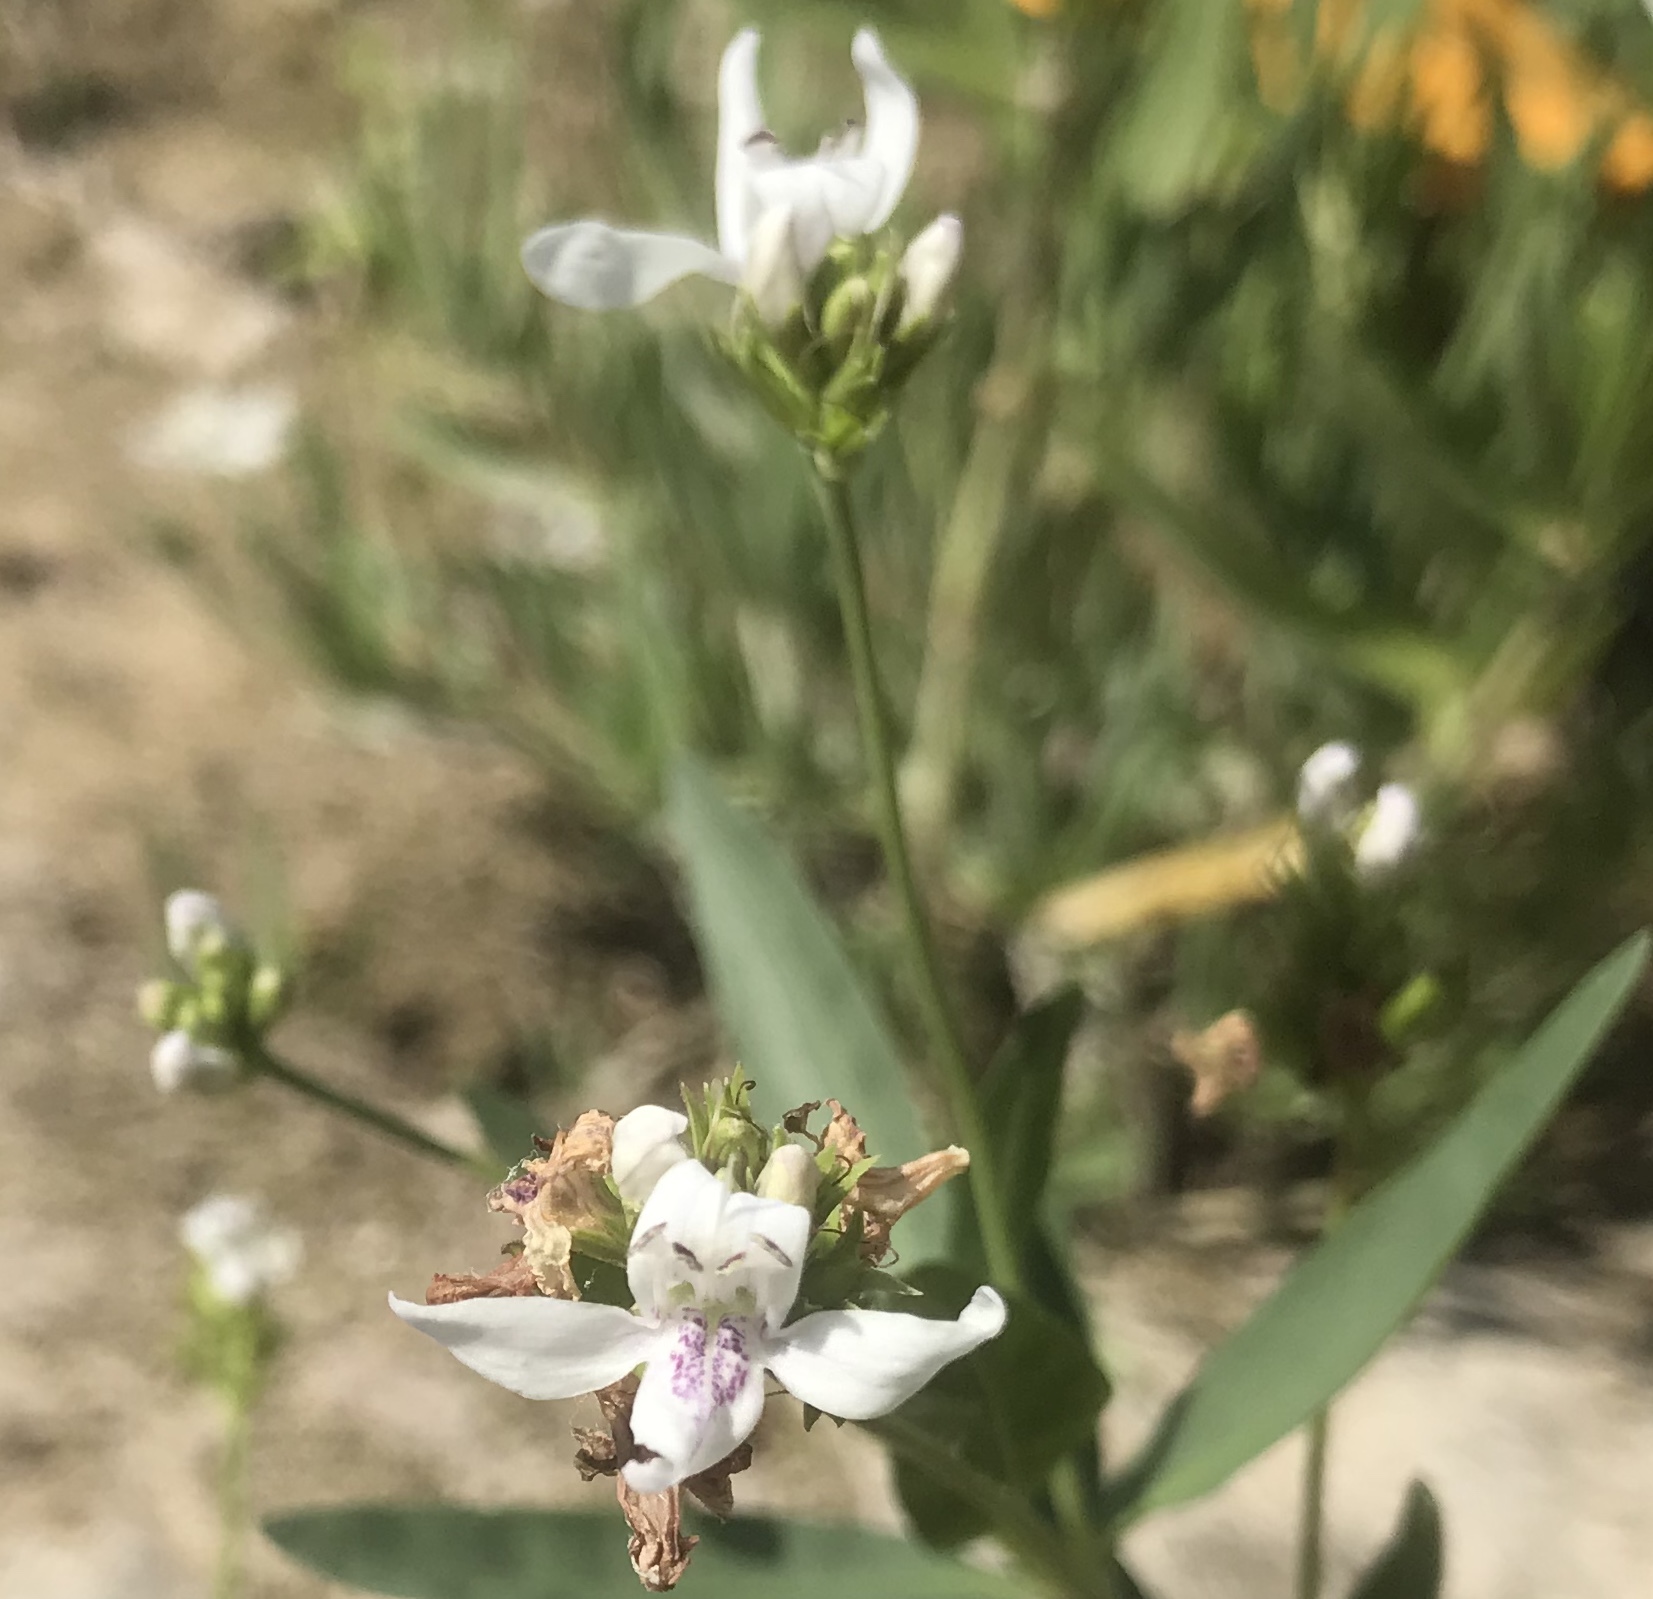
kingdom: Plantae
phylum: Tracheophyta
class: Magnoliopsida
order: Lamiales
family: Acanthaceae
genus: Dianthera
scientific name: Dianthera americana
